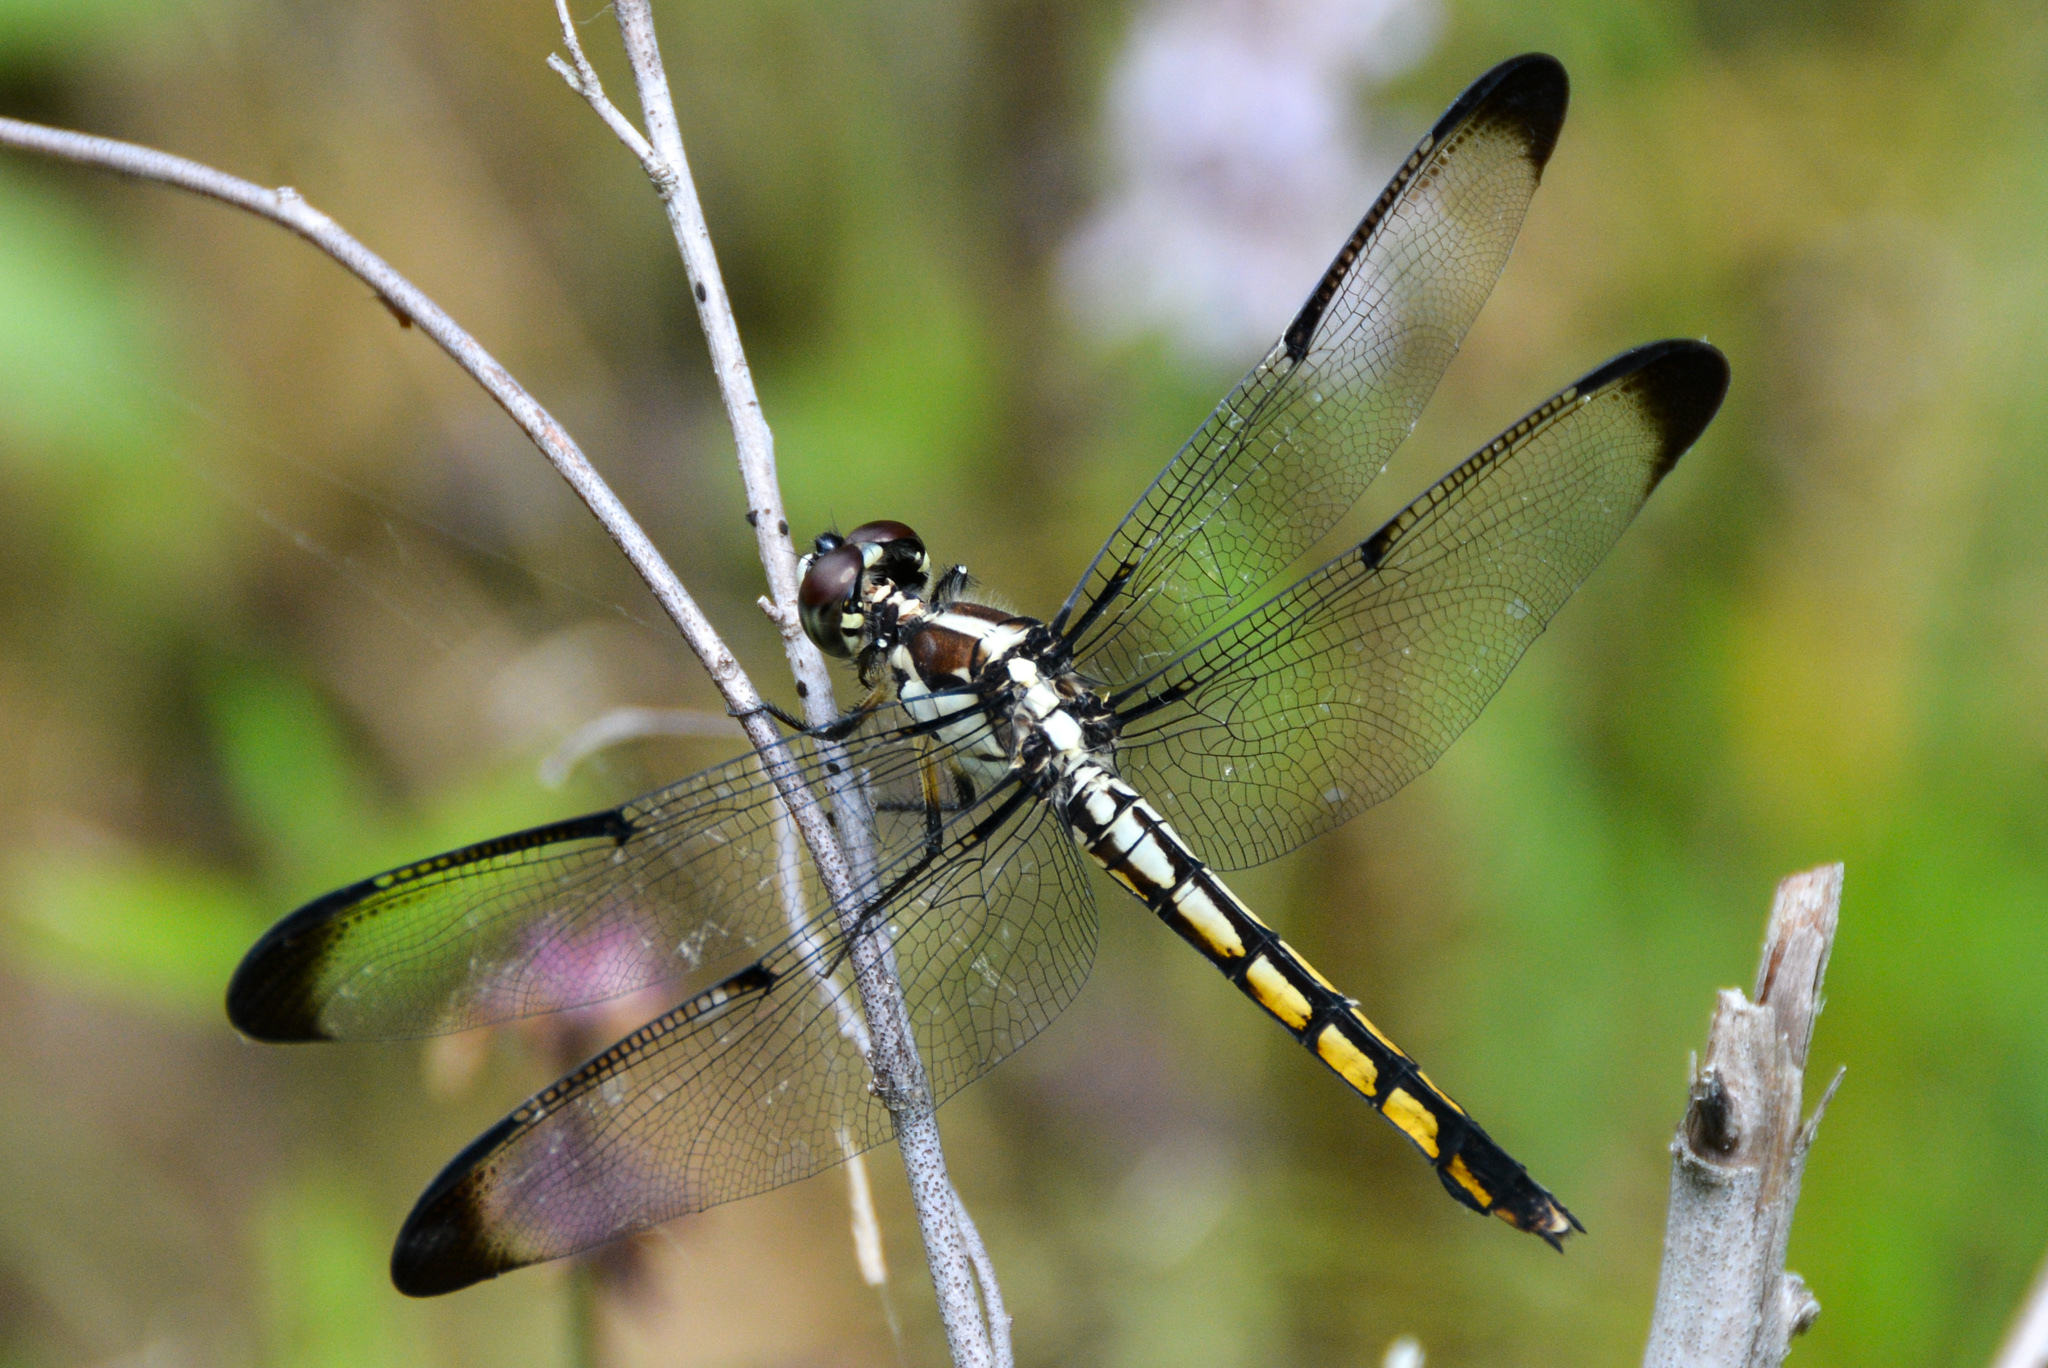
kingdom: Animalia
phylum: Arthropoda
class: Insecta
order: Odonata
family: Libellulidae
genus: Libellula
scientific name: Libellula vibrans
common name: Great blue skimmer
